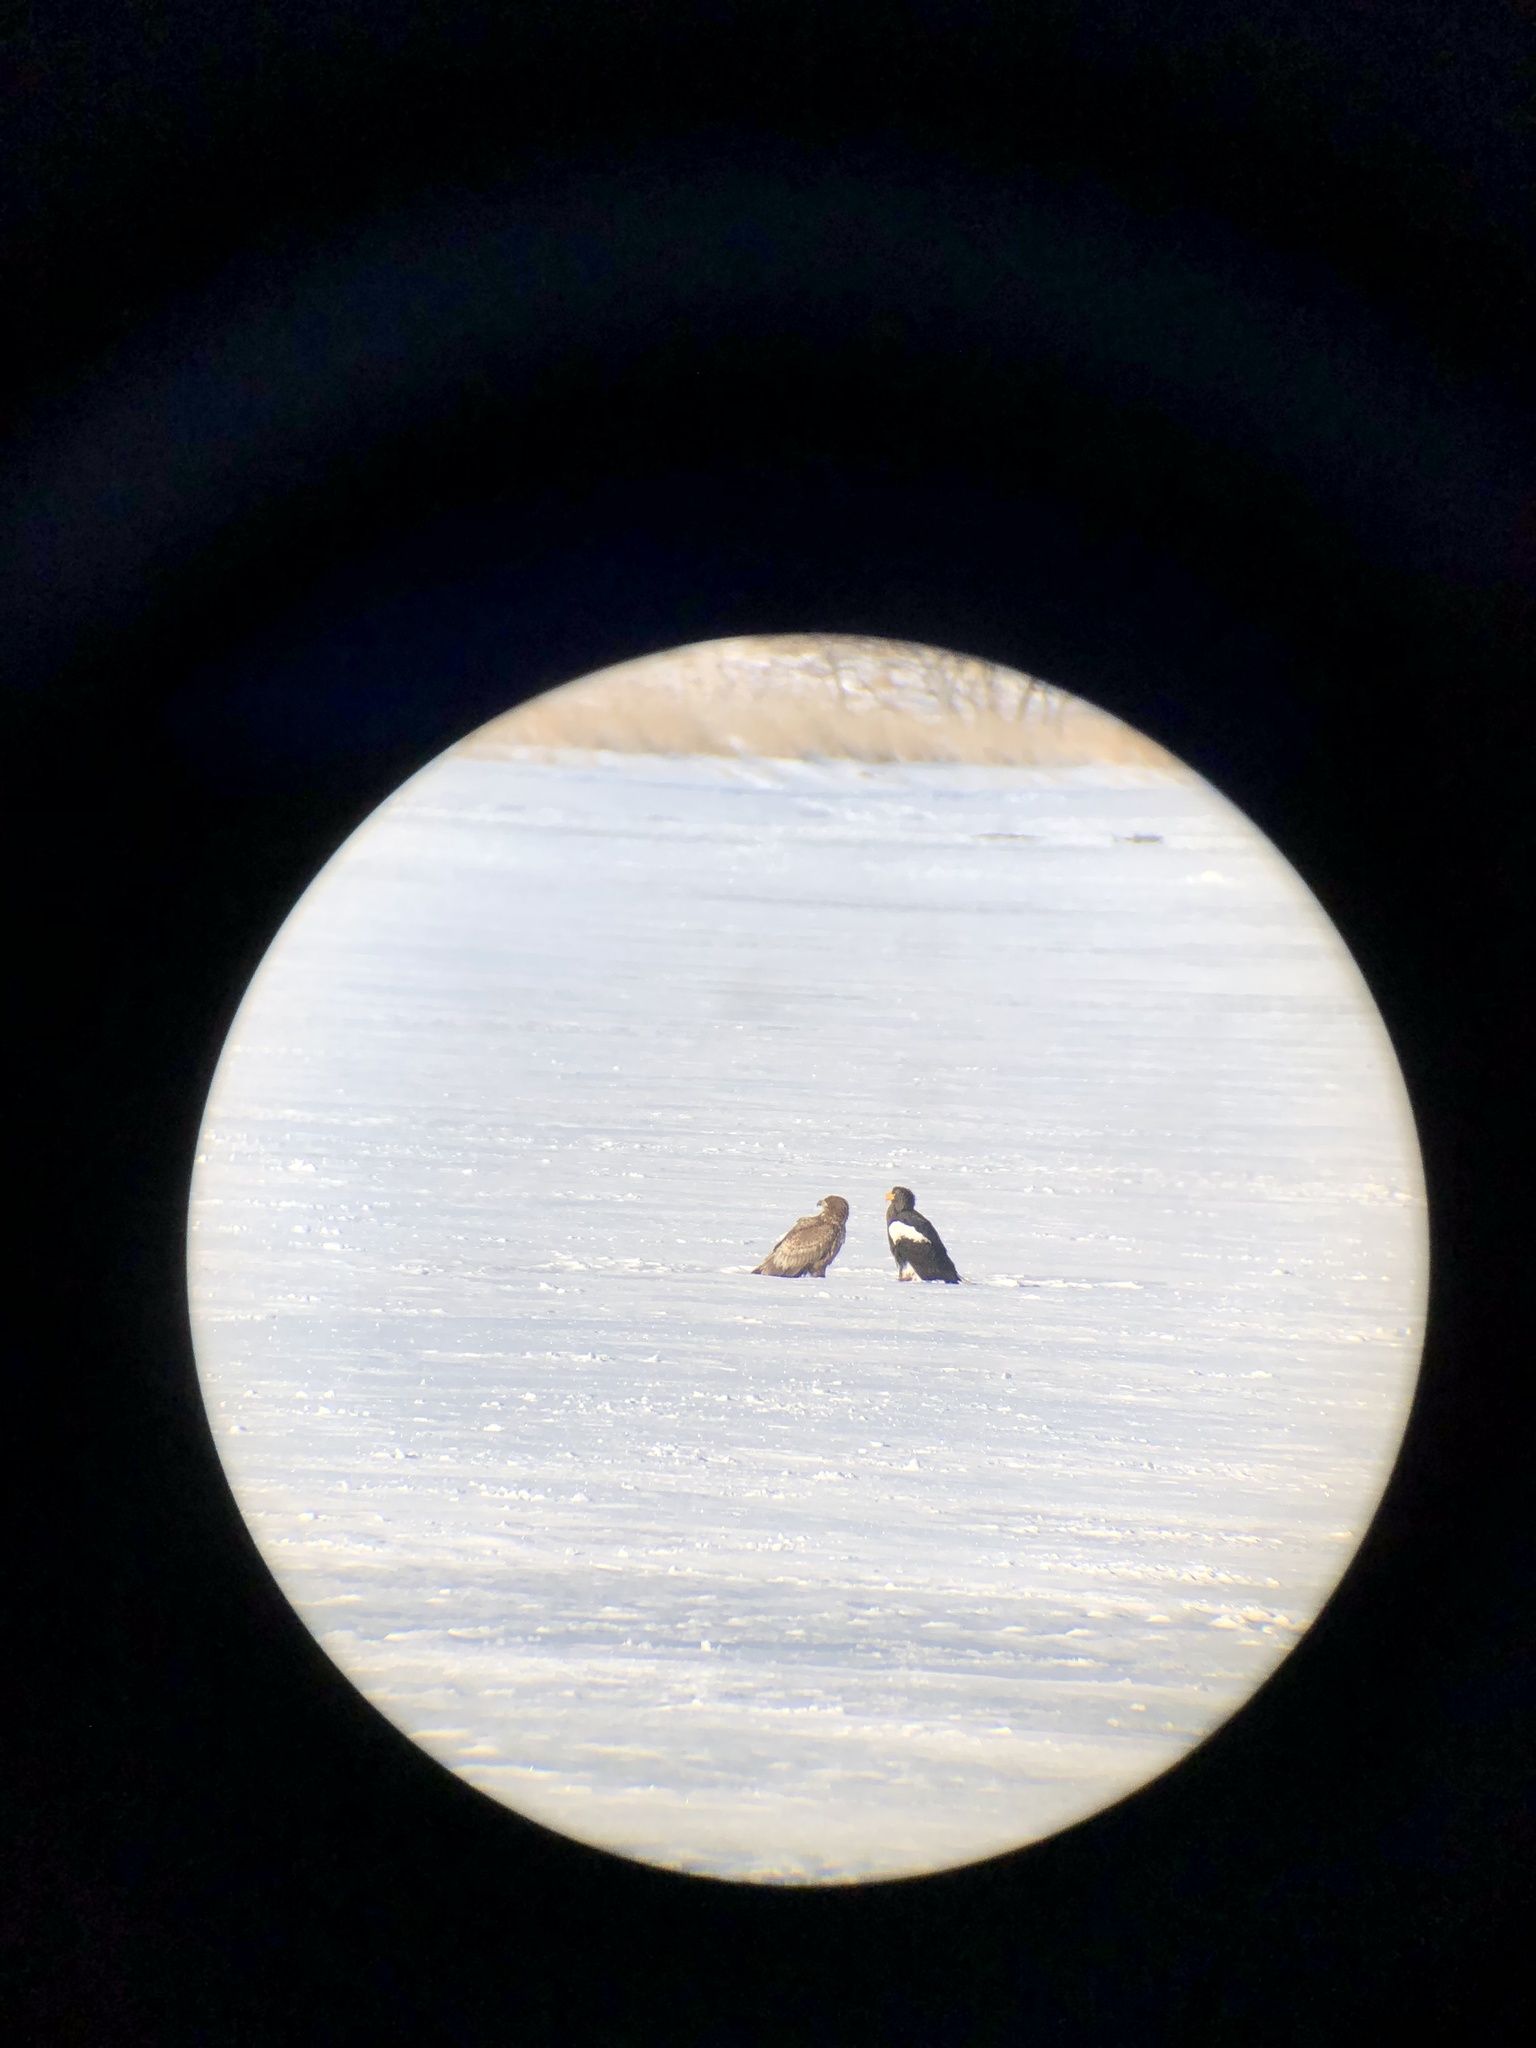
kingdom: Animalia
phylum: Chordata
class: Aves
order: Accipitriformes
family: Accipitridae
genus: Haliaeetus
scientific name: Haliaeetus pelagicus
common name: Steller's sea eagle
